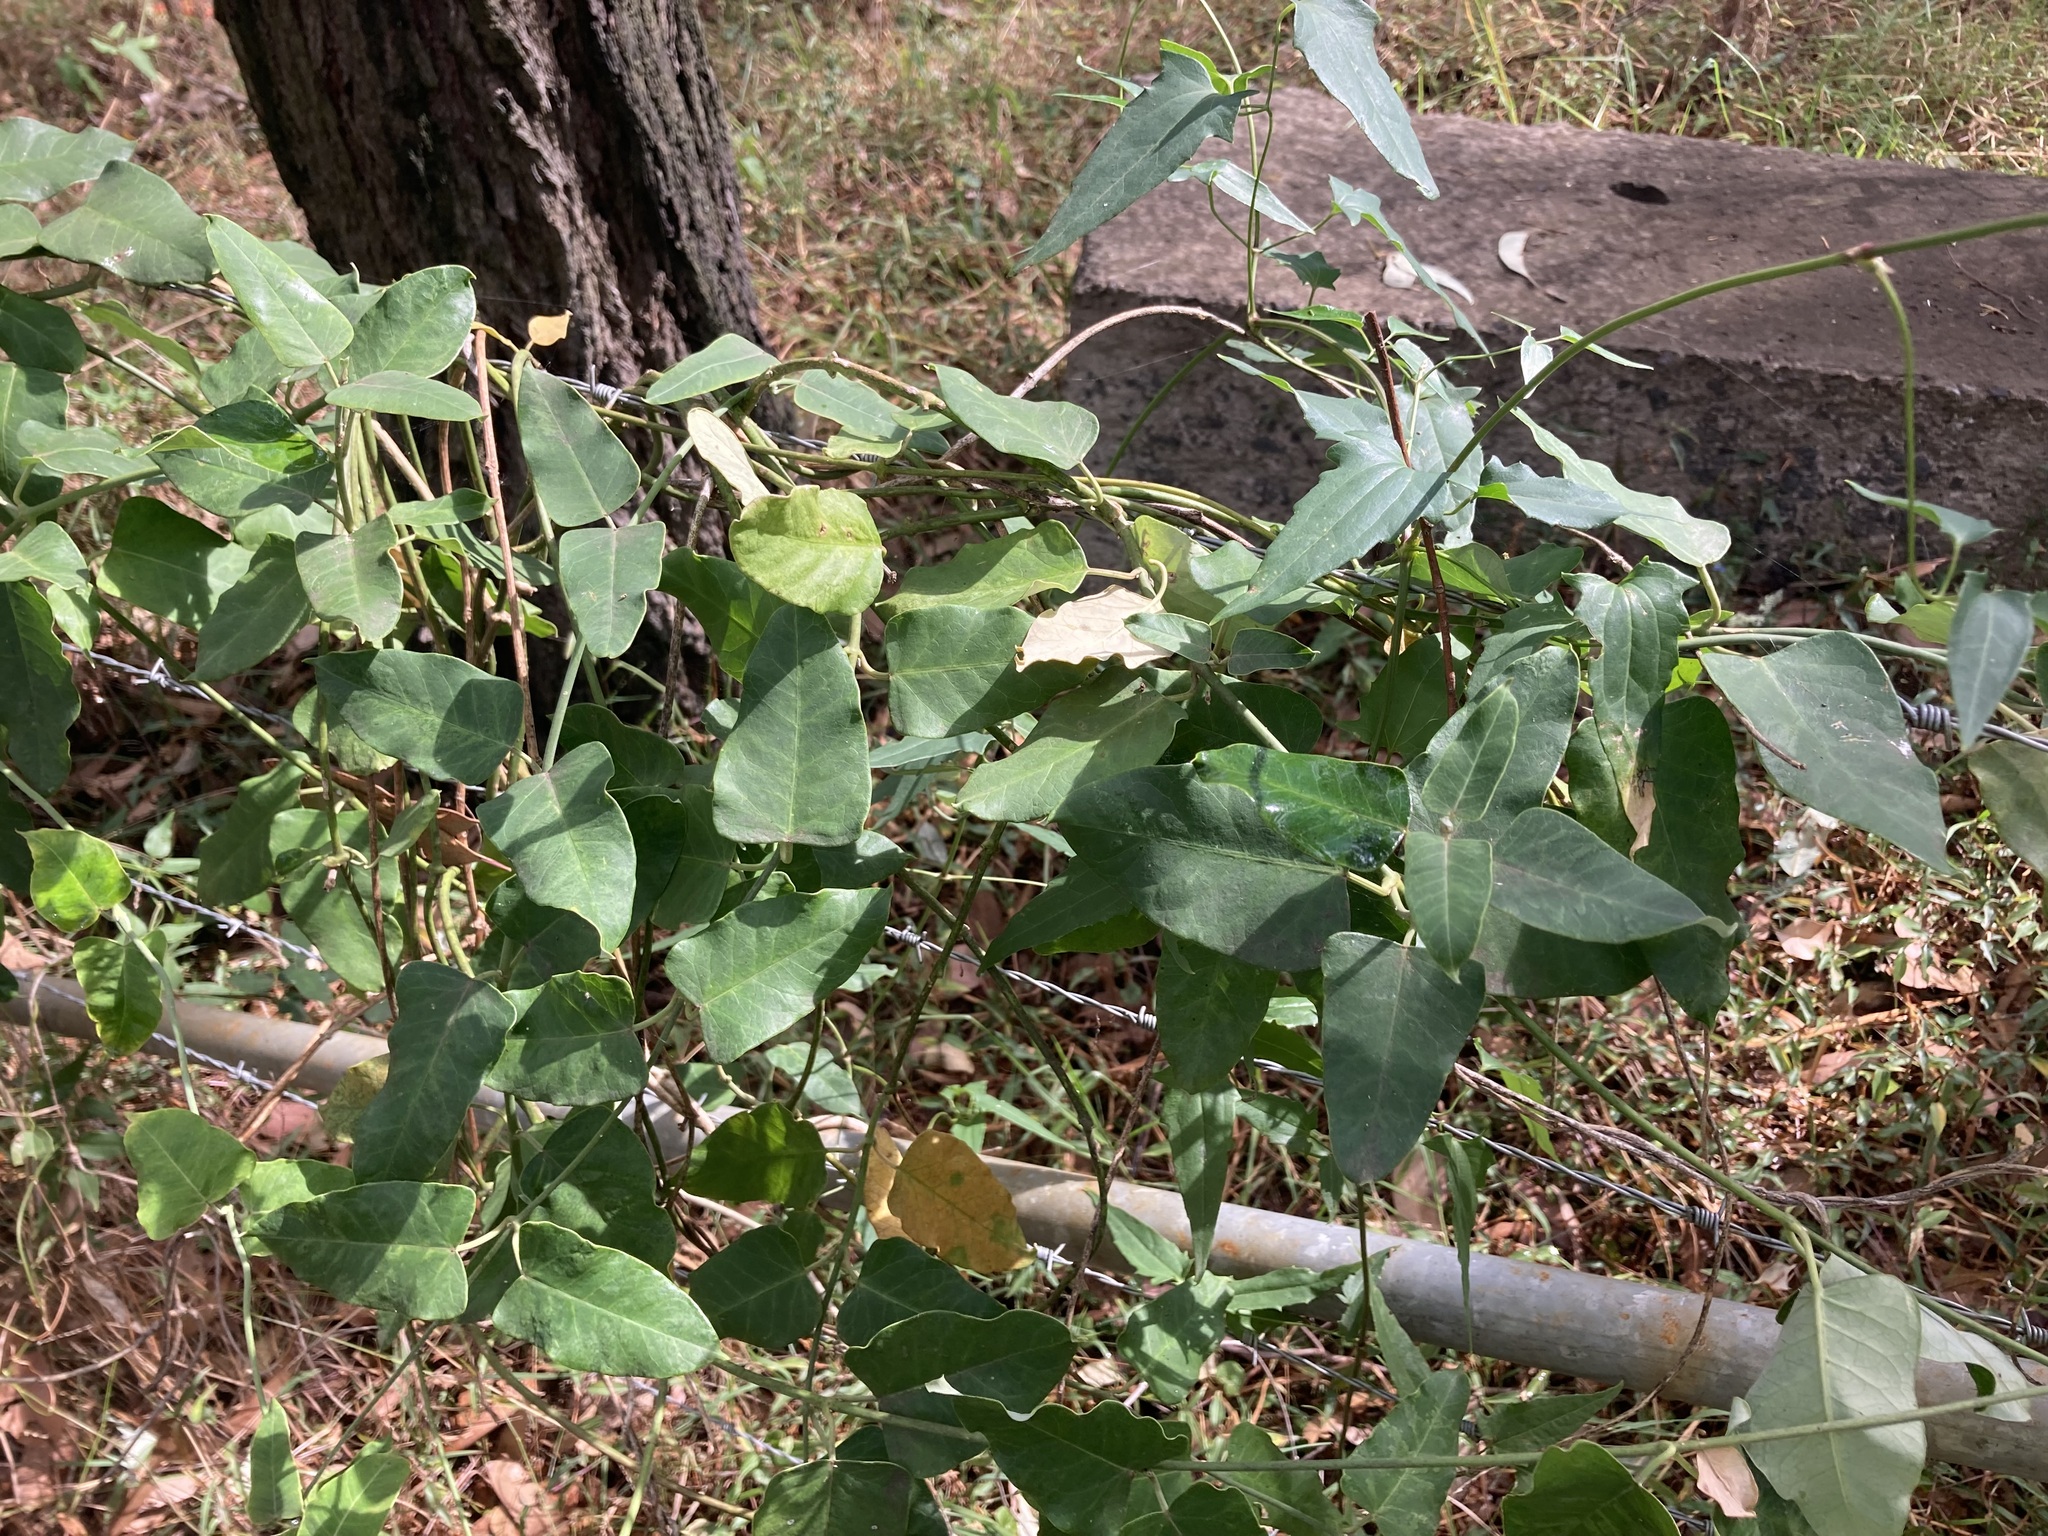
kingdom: Plantae
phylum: Tracheophyta
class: Magnoliopsida
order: Gentianales
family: Apocynaceae
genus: Araujia
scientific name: Araujia sericifera
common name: White bladderflower
